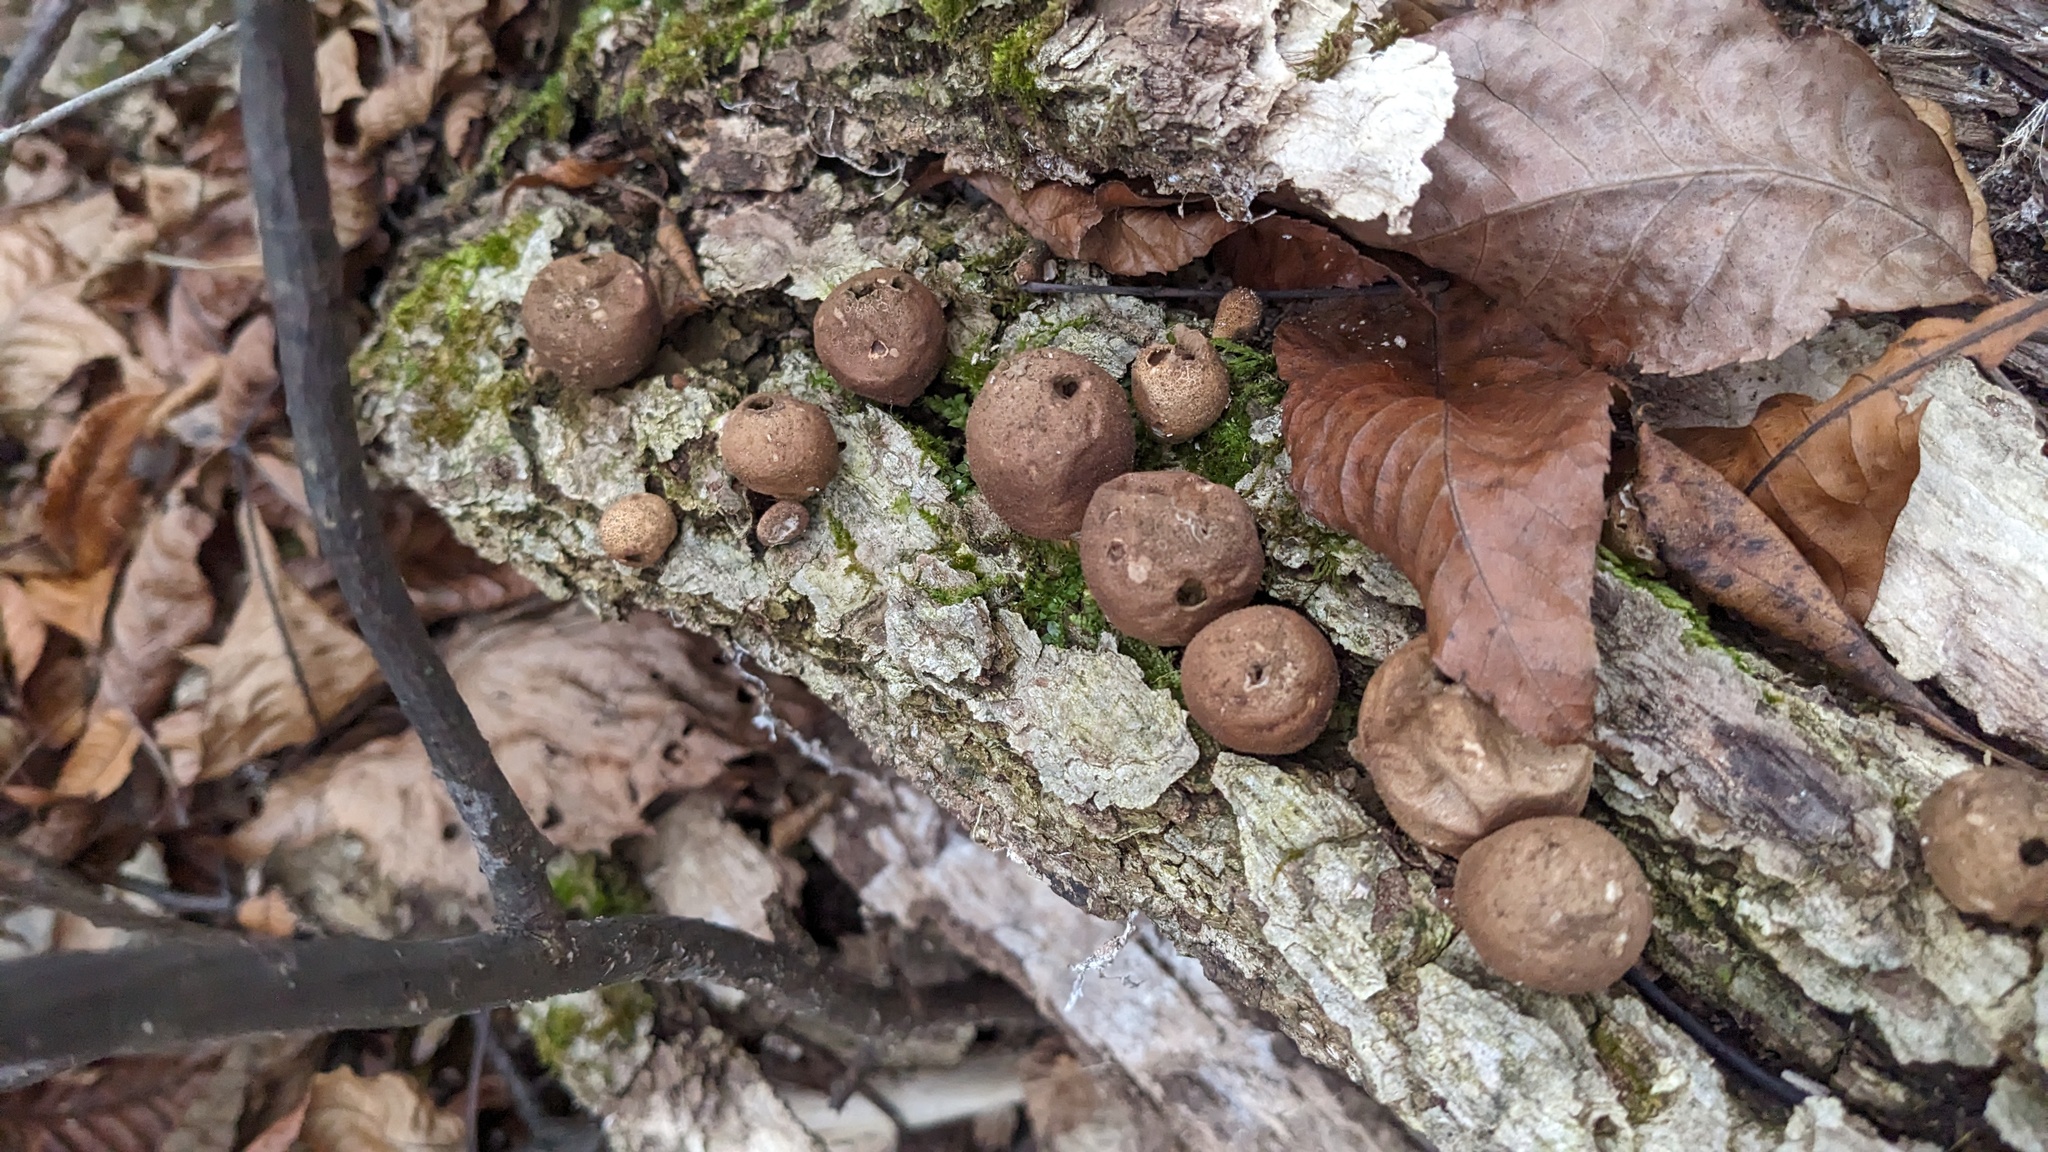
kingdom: Fungi
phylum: Basidiomycota
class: Agaricomycetes
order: Agaricales
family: Lycoperdaceae
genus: Apioperdon
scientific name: Apioperdon pyriforme
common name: Pear-shaped puffball
